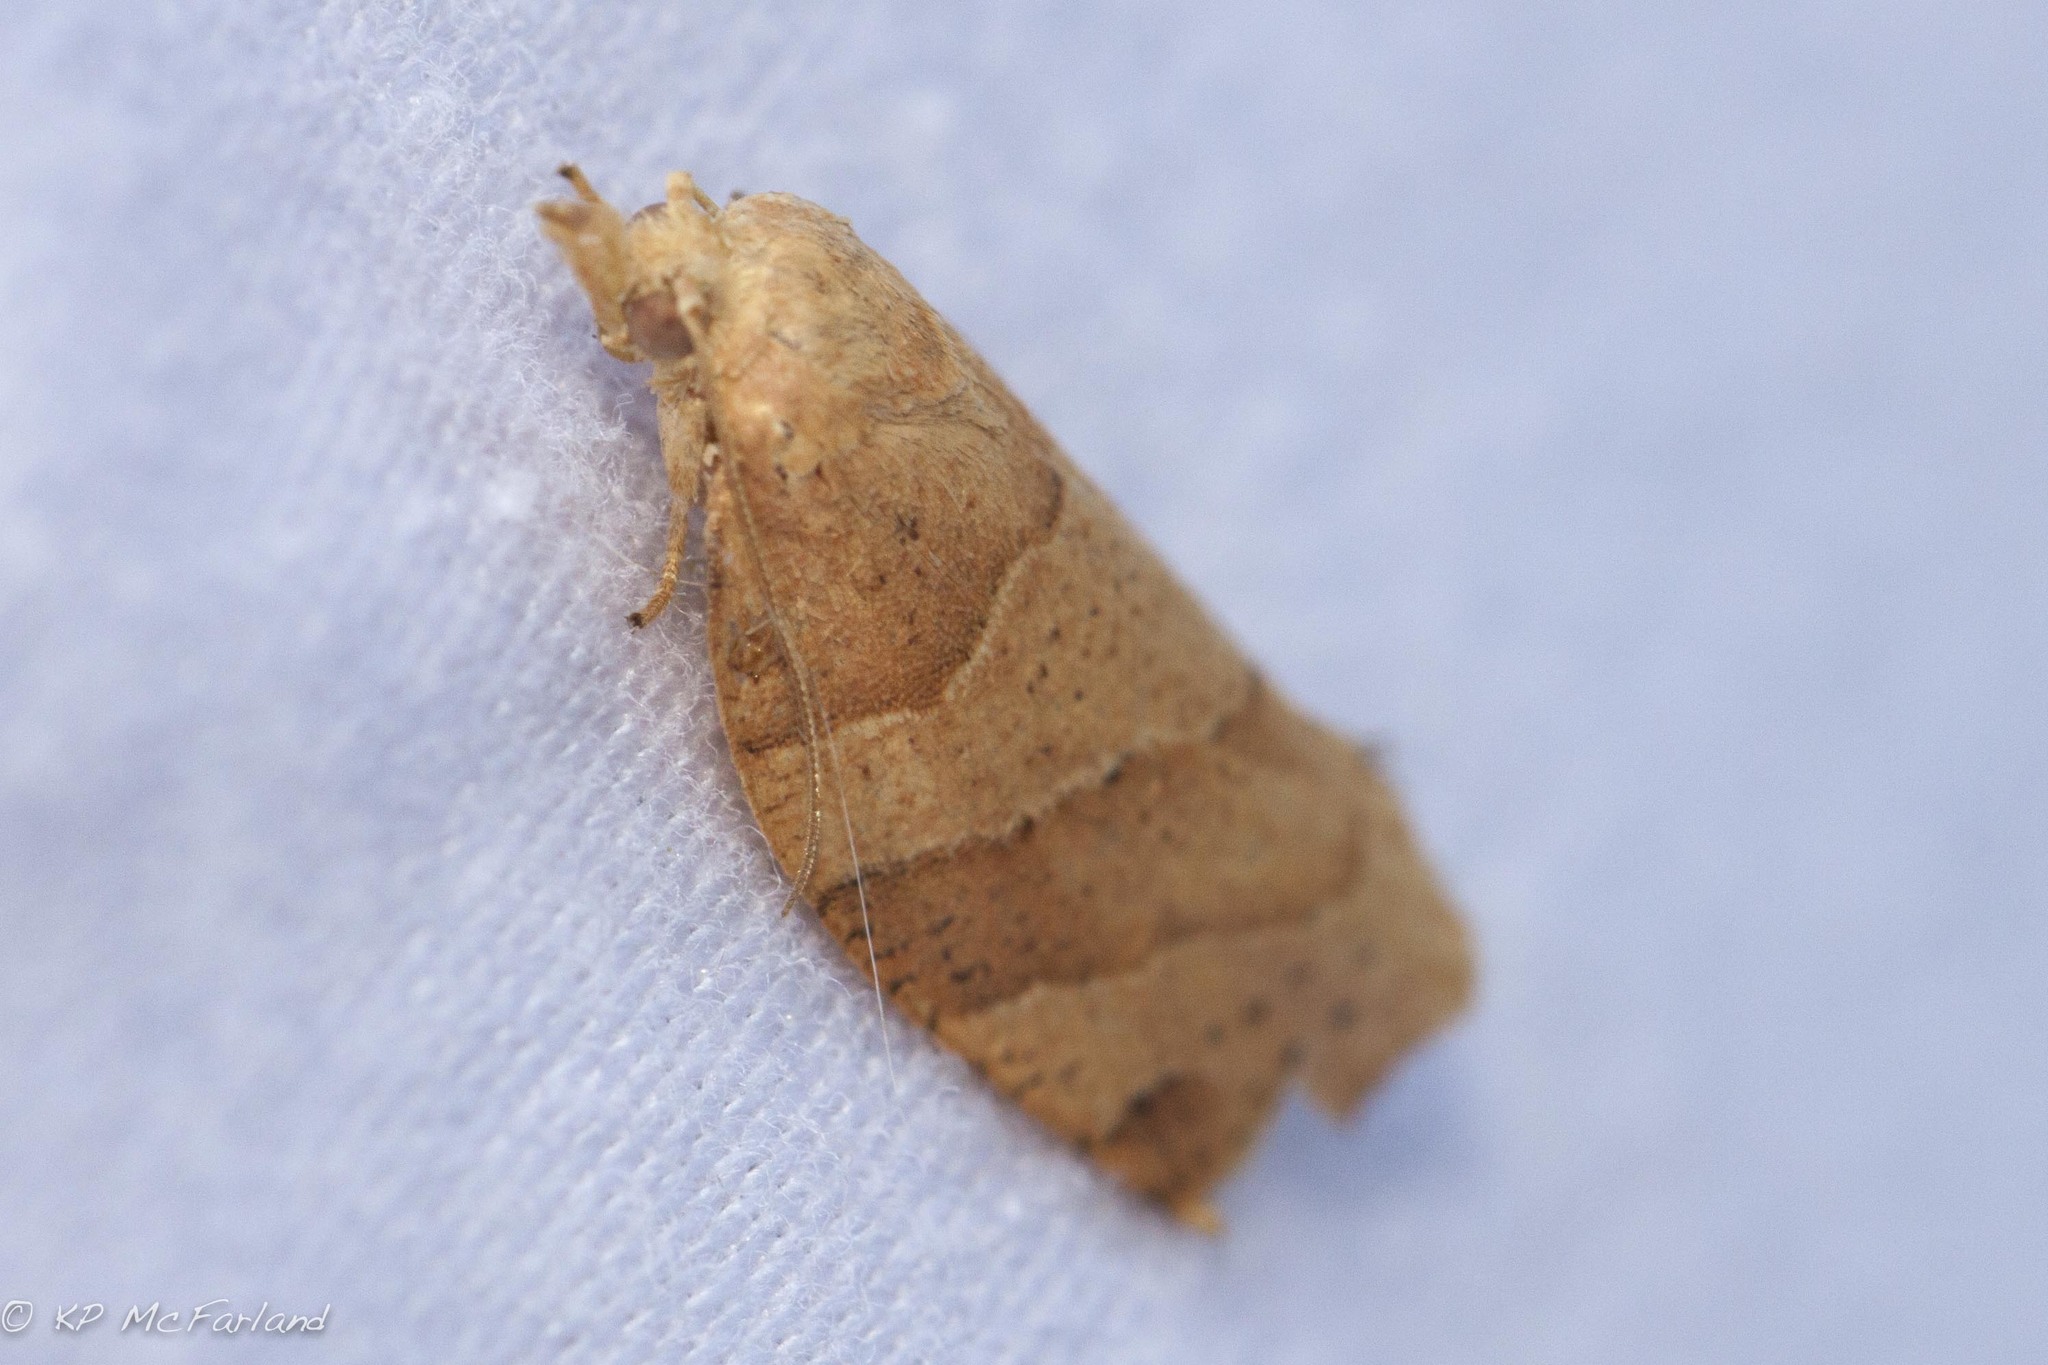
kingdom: Animalia
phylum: Arthropoda
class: Insecta
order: Lepidoptera
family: Tortricidae
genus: Pandemis
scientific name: Pandemis lamprosana
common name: Woodgrain leafroller moth
